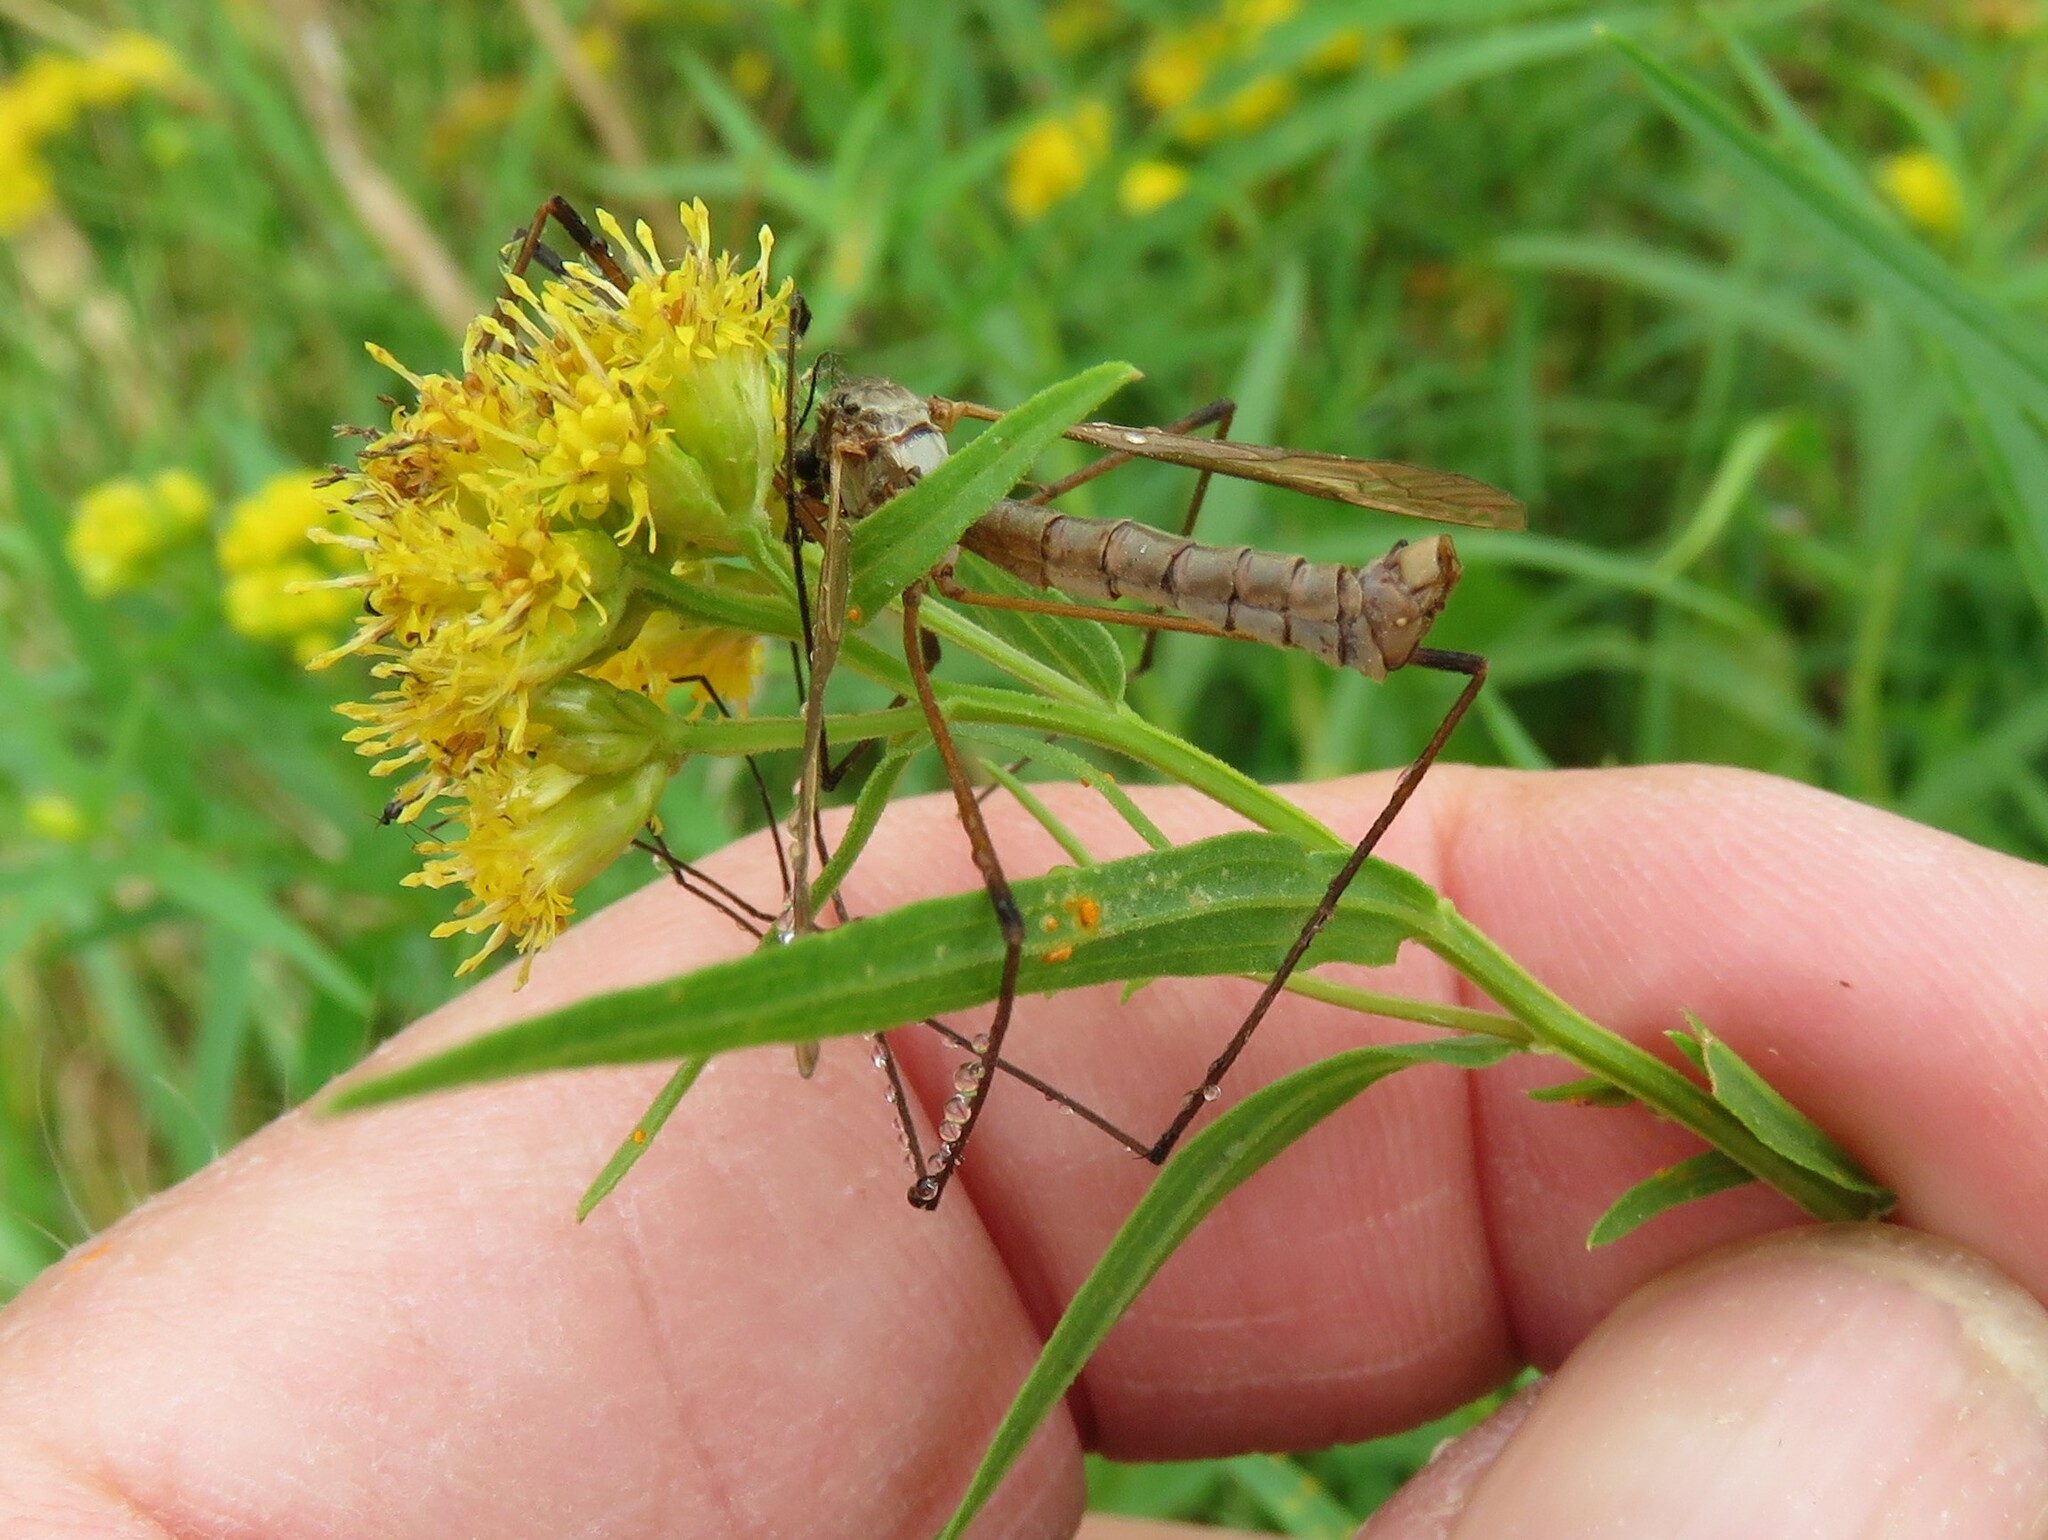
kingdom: Animalia
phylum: Arthropoda
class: Insecta
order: Diptera
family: Tipulidae
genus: Tipula
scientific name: Tipula paludosa
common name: European cranefly
